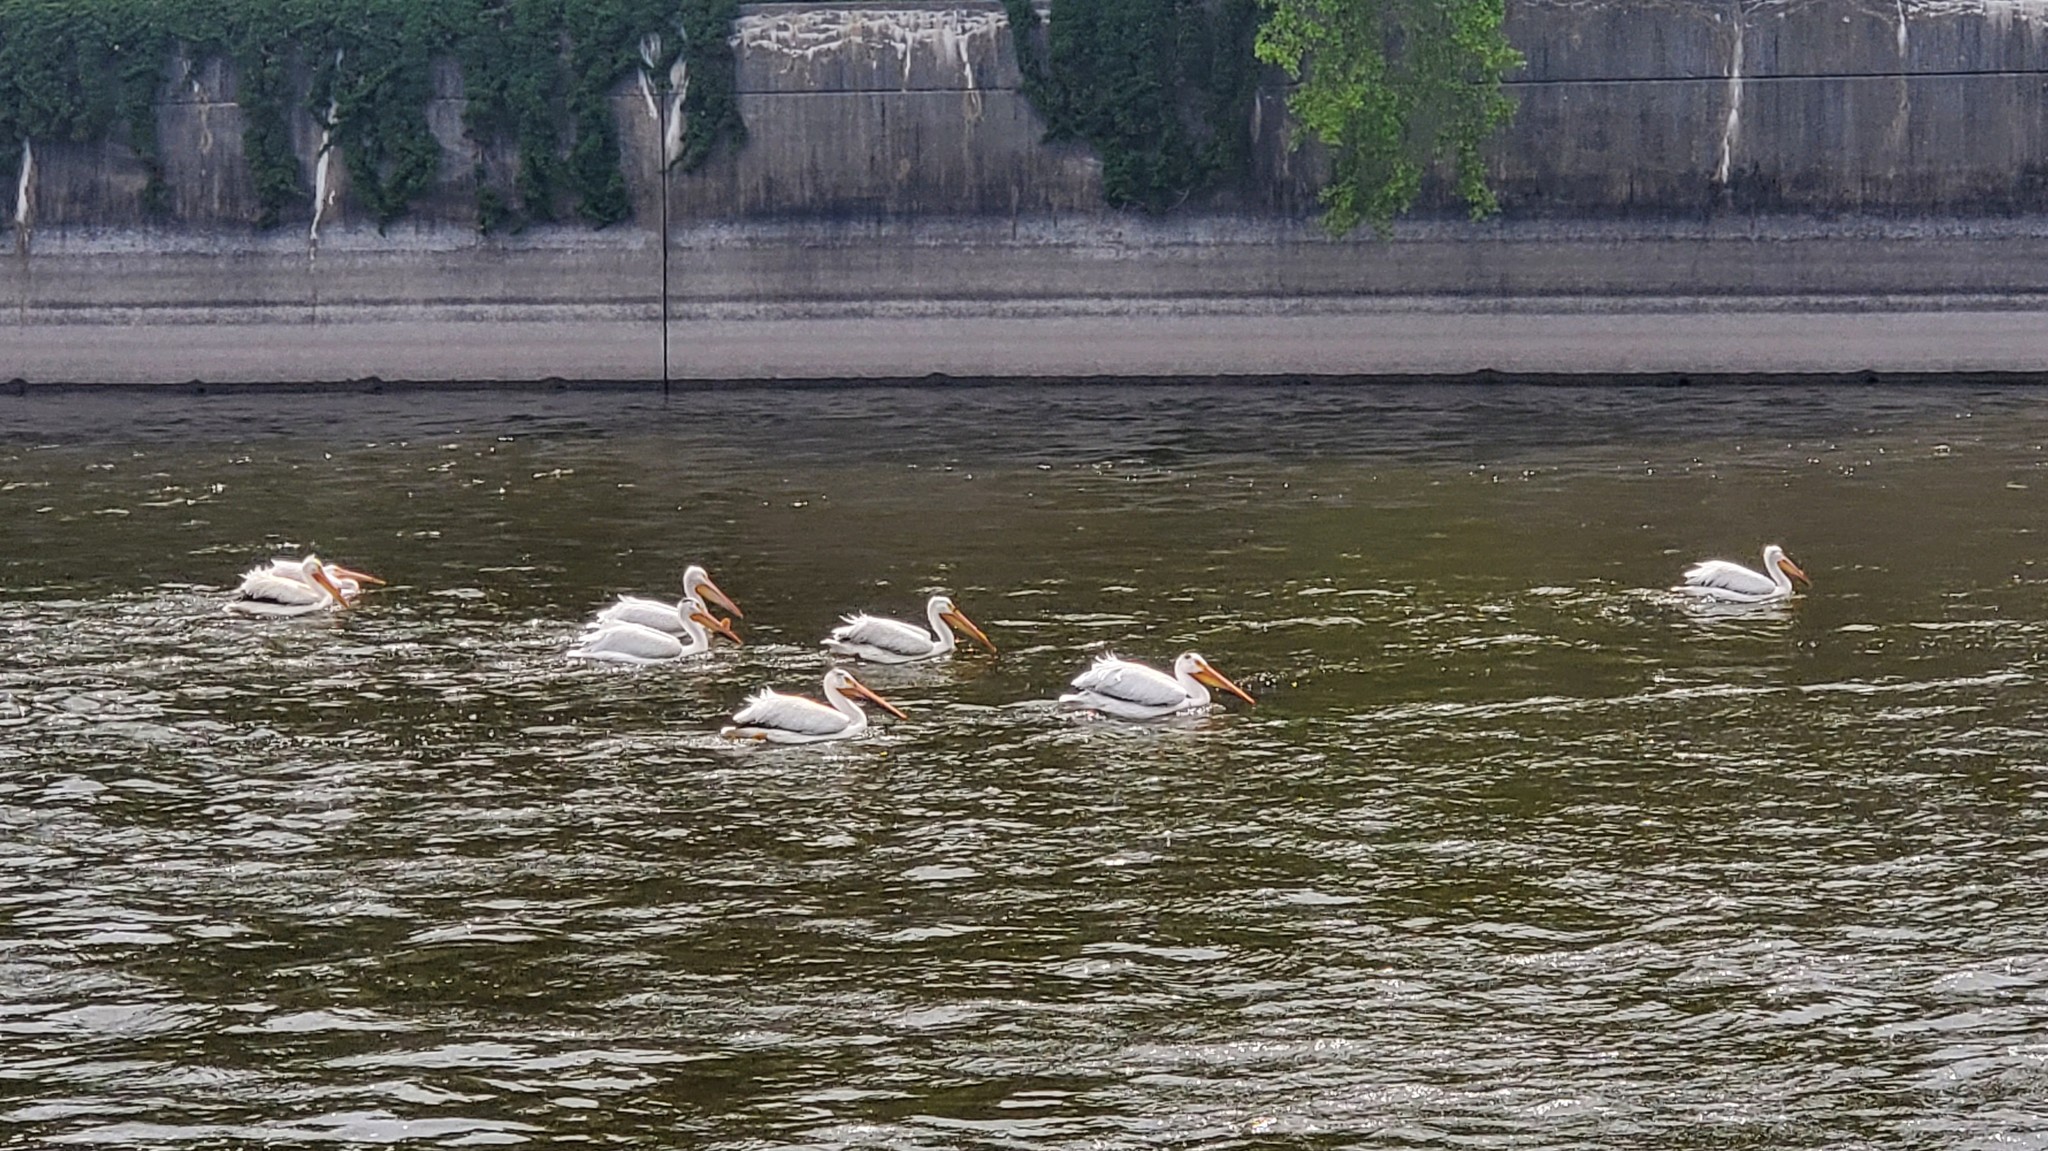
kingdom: Animalia
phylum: Chordata
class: Aves
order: Pelecaniformes
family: Pelecanidae
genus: Pelecanus
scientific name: Pelecanus erythrorhynchos
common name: American white pelican
